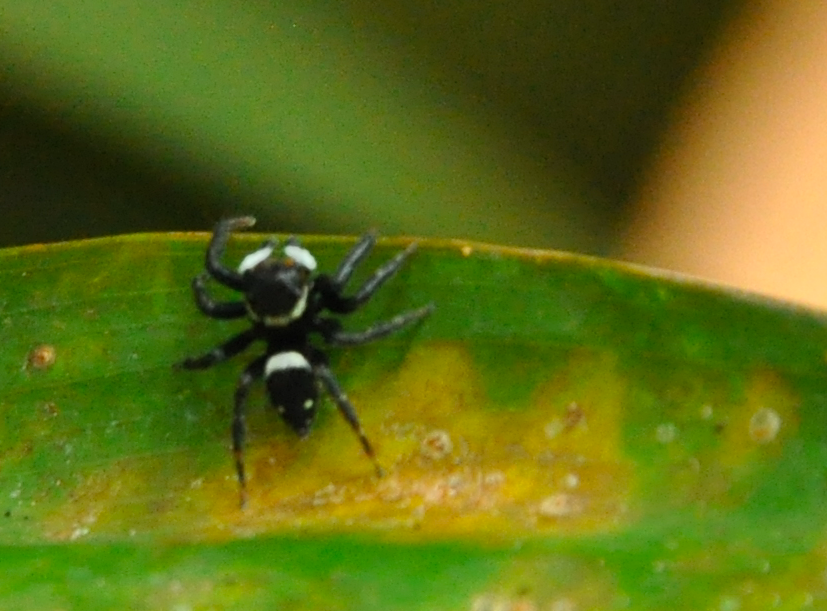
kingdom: Animalia
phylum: Arthropoda
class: Arachnida
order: Araneae
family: Salticidae
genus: Hasarius
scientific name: Hasarius adansoni
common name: Jumping spider
